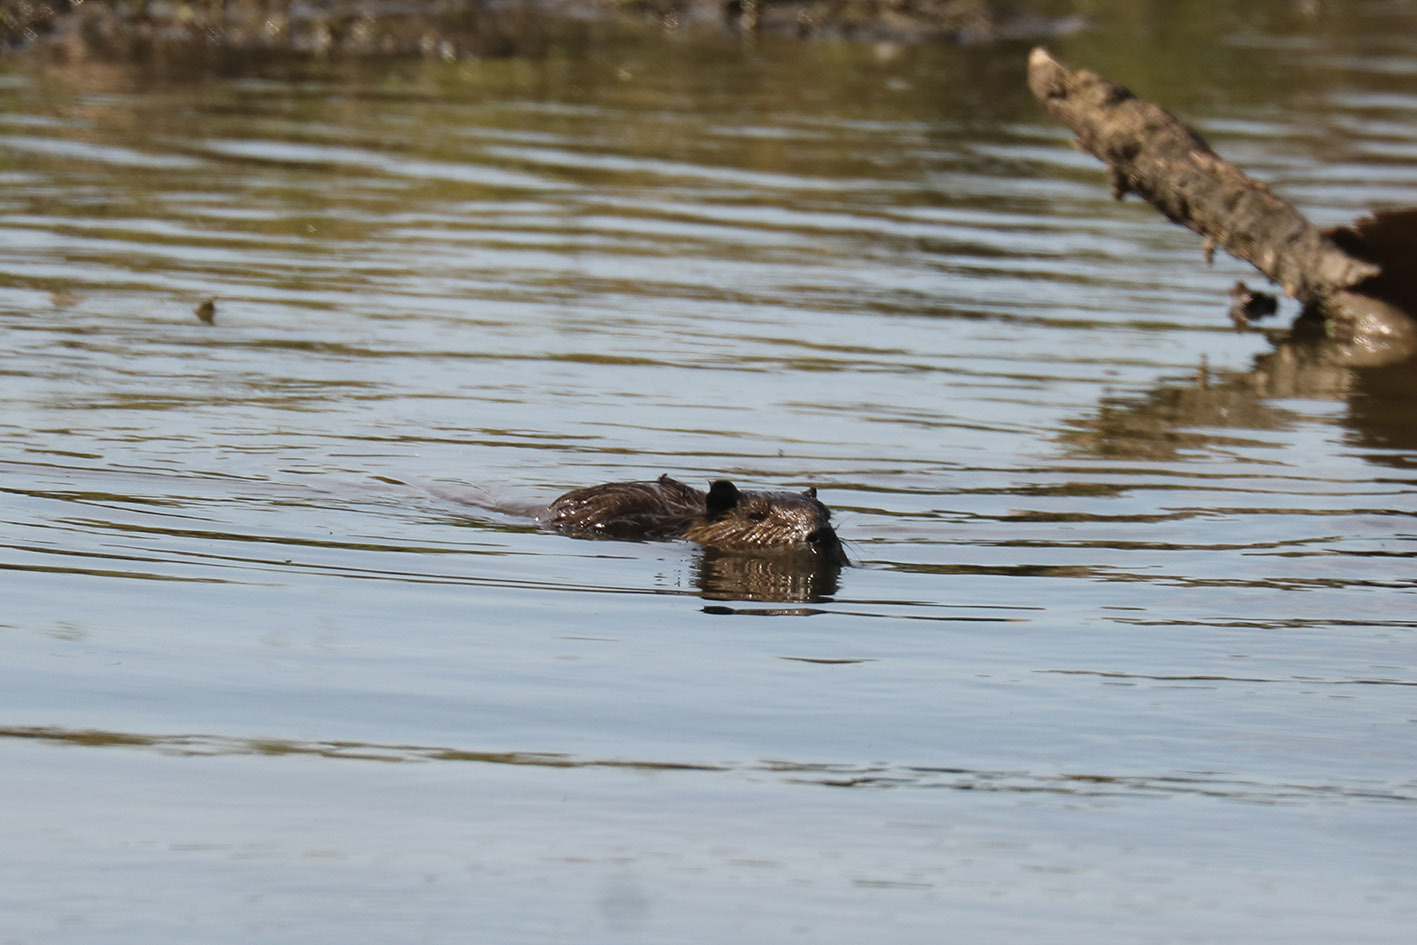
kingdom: Animalia
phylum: Chordata
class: Mammalia
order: Rodentia
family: Myocastoridae
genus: Myocastor
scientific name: Myocastor coypus
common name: Coypu
